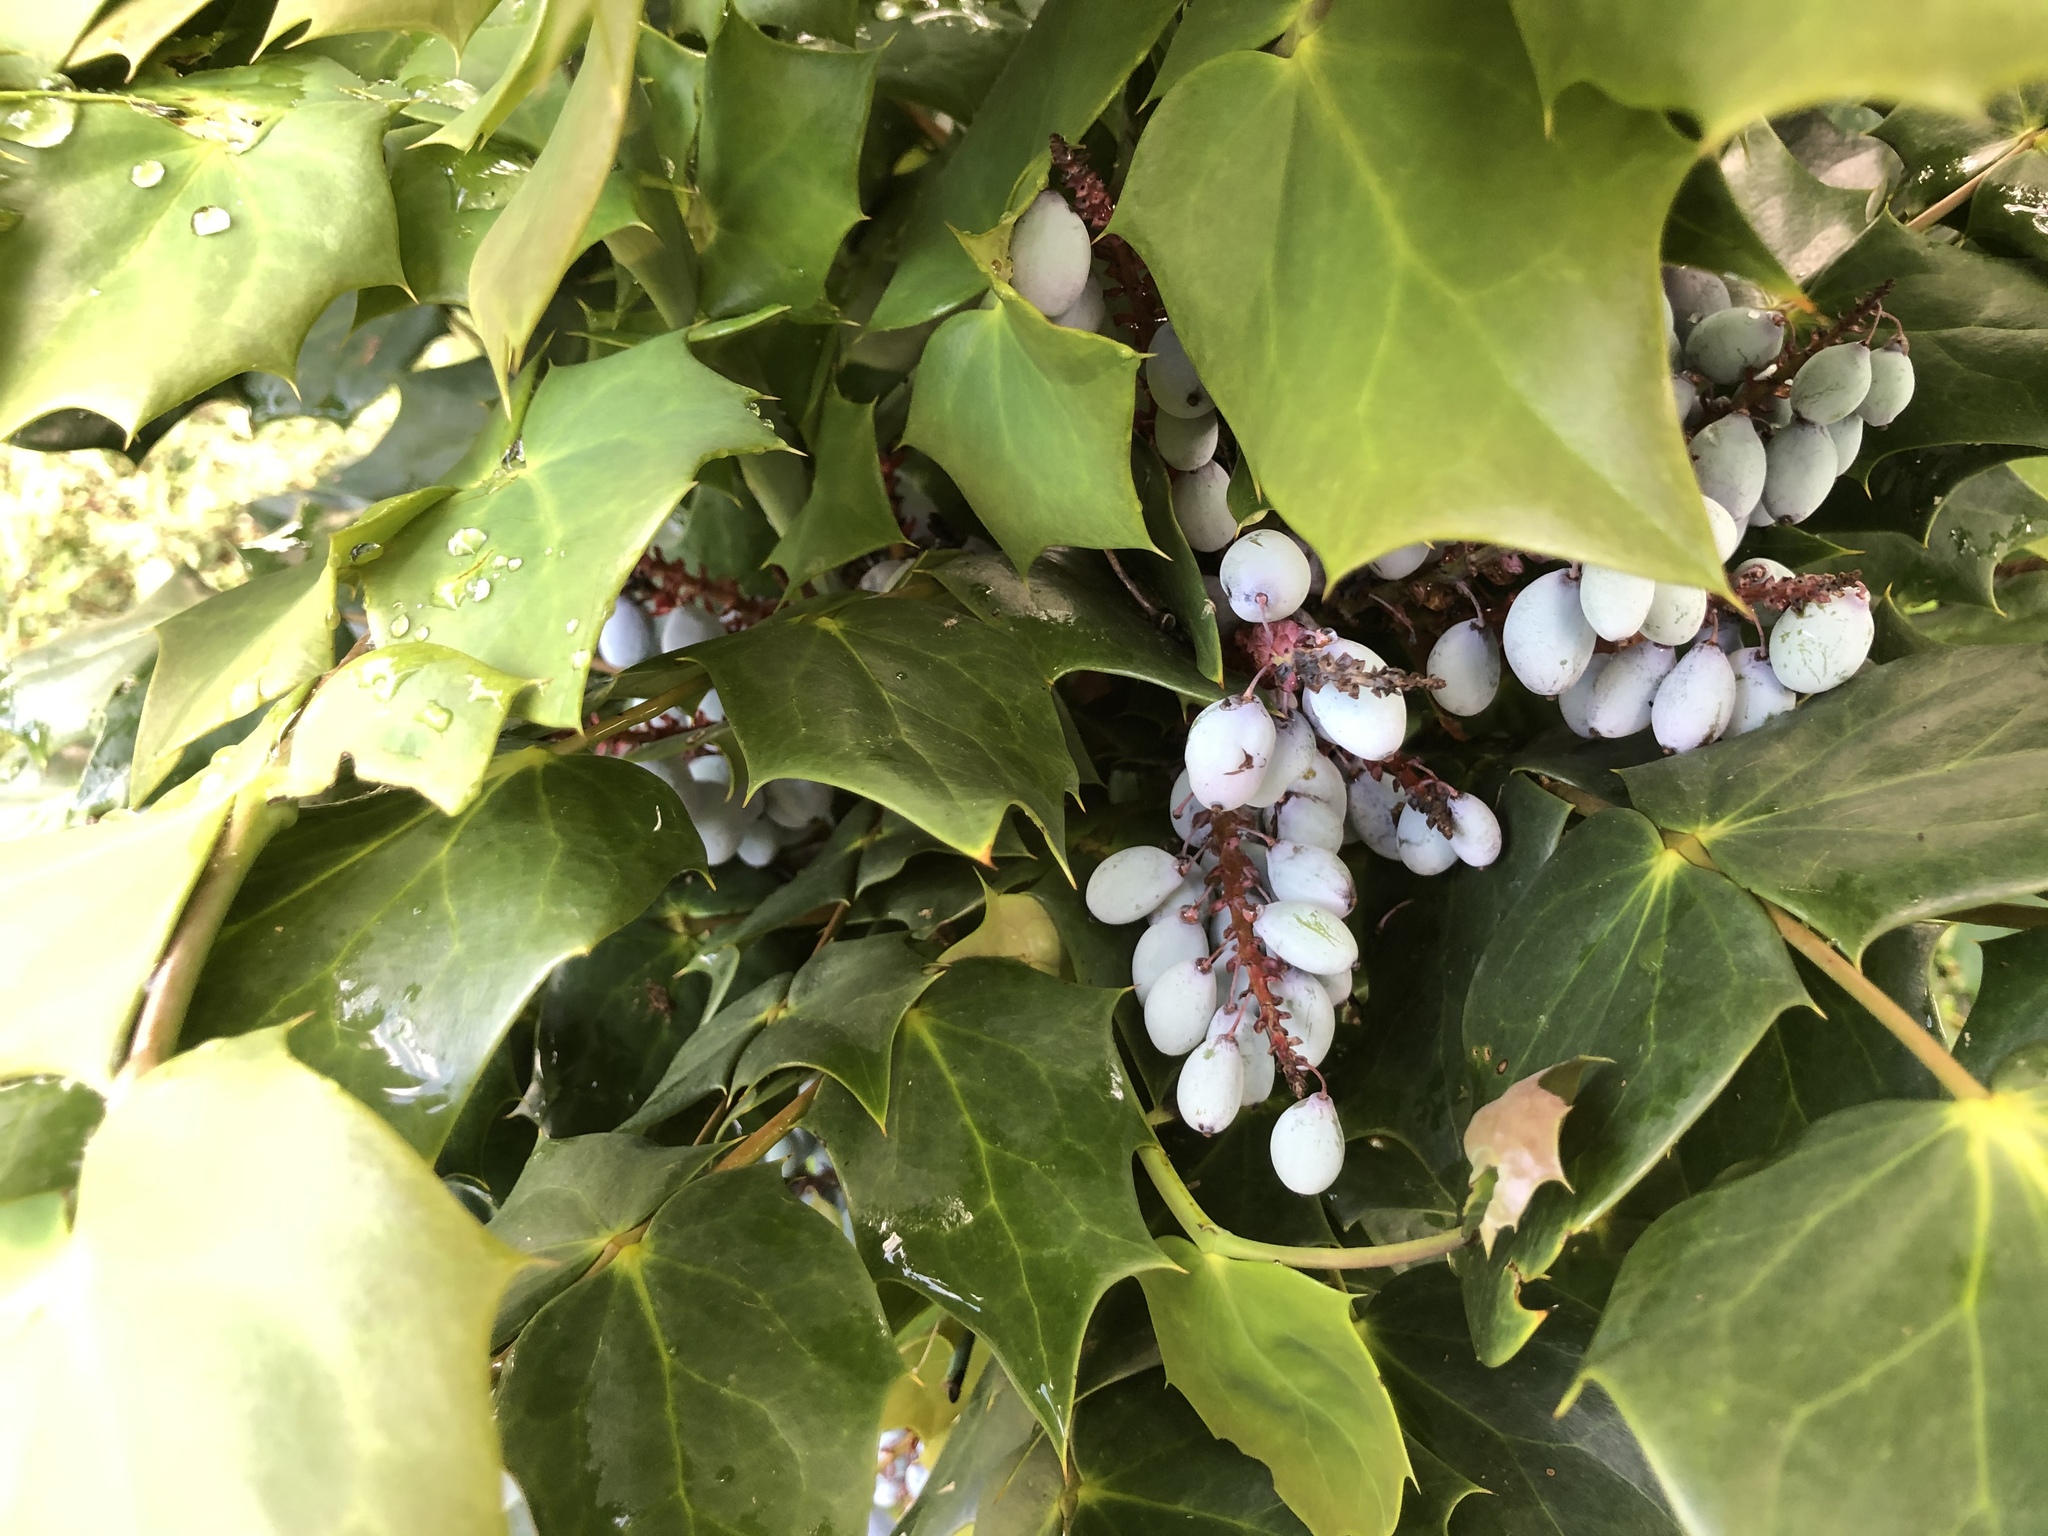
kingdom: Plantae
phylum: Tracheophyta
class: Magnoliopsida
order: Ranunculales
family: Berberidaceae
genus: Mahonia
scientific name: Mahonia bealei
